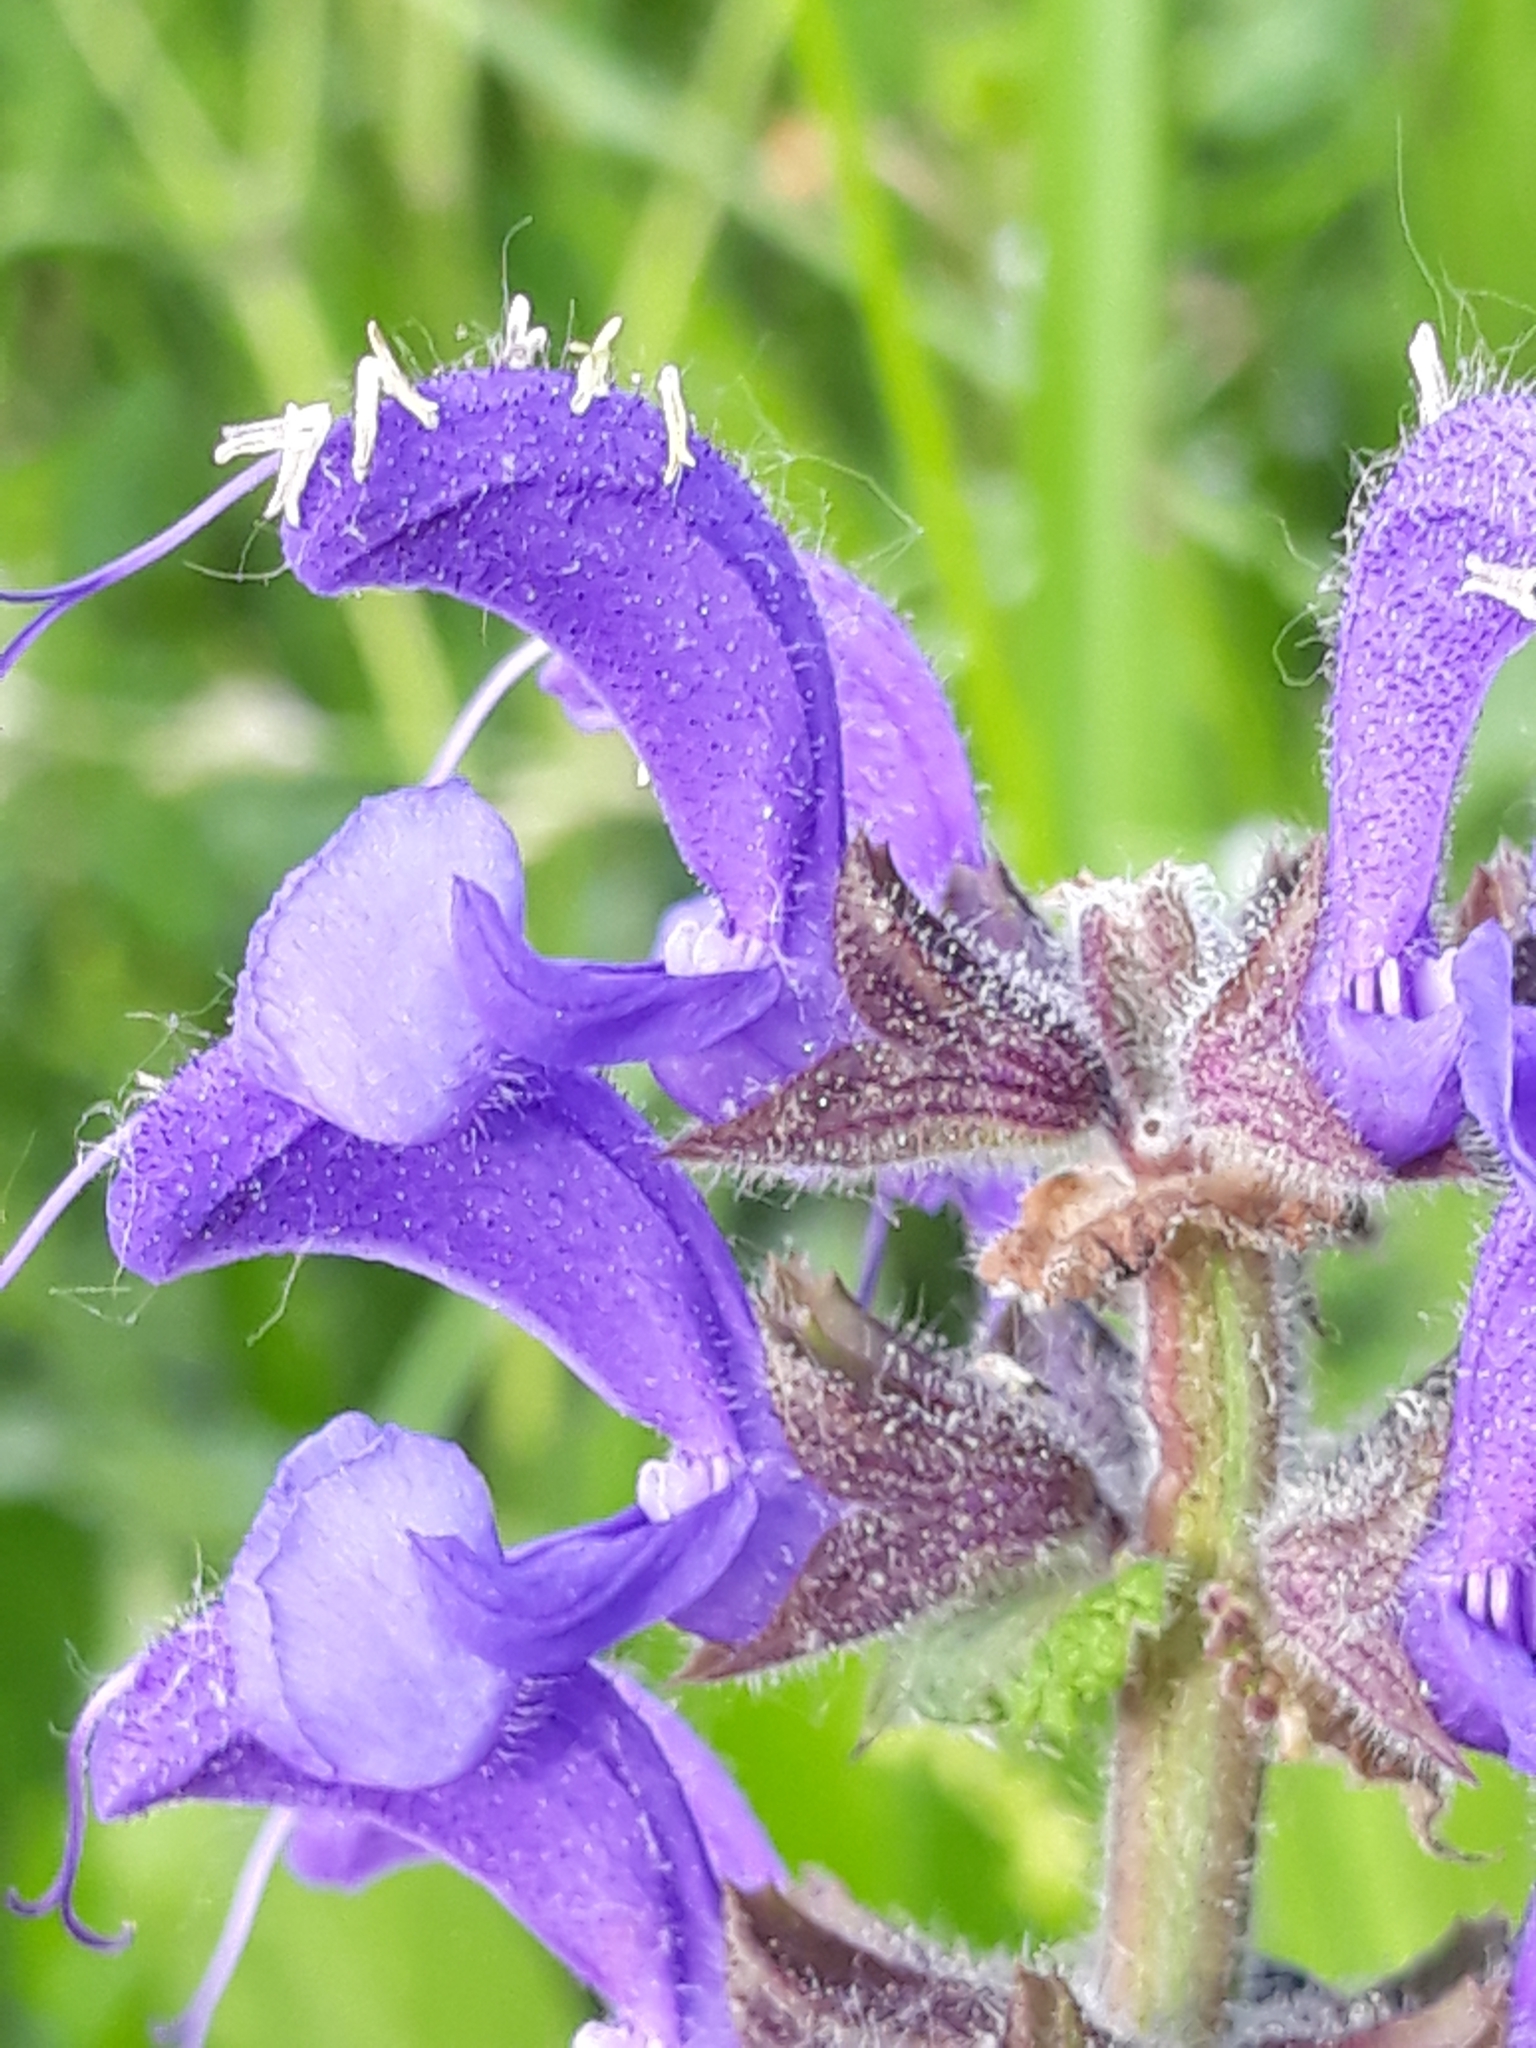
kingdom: Plantae
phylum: Tracheophyta
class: Magnoliopsida
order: Lamiales
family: Lamiaceae
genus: Salvia
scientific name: Salvia pratensis
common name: Meadow sage
